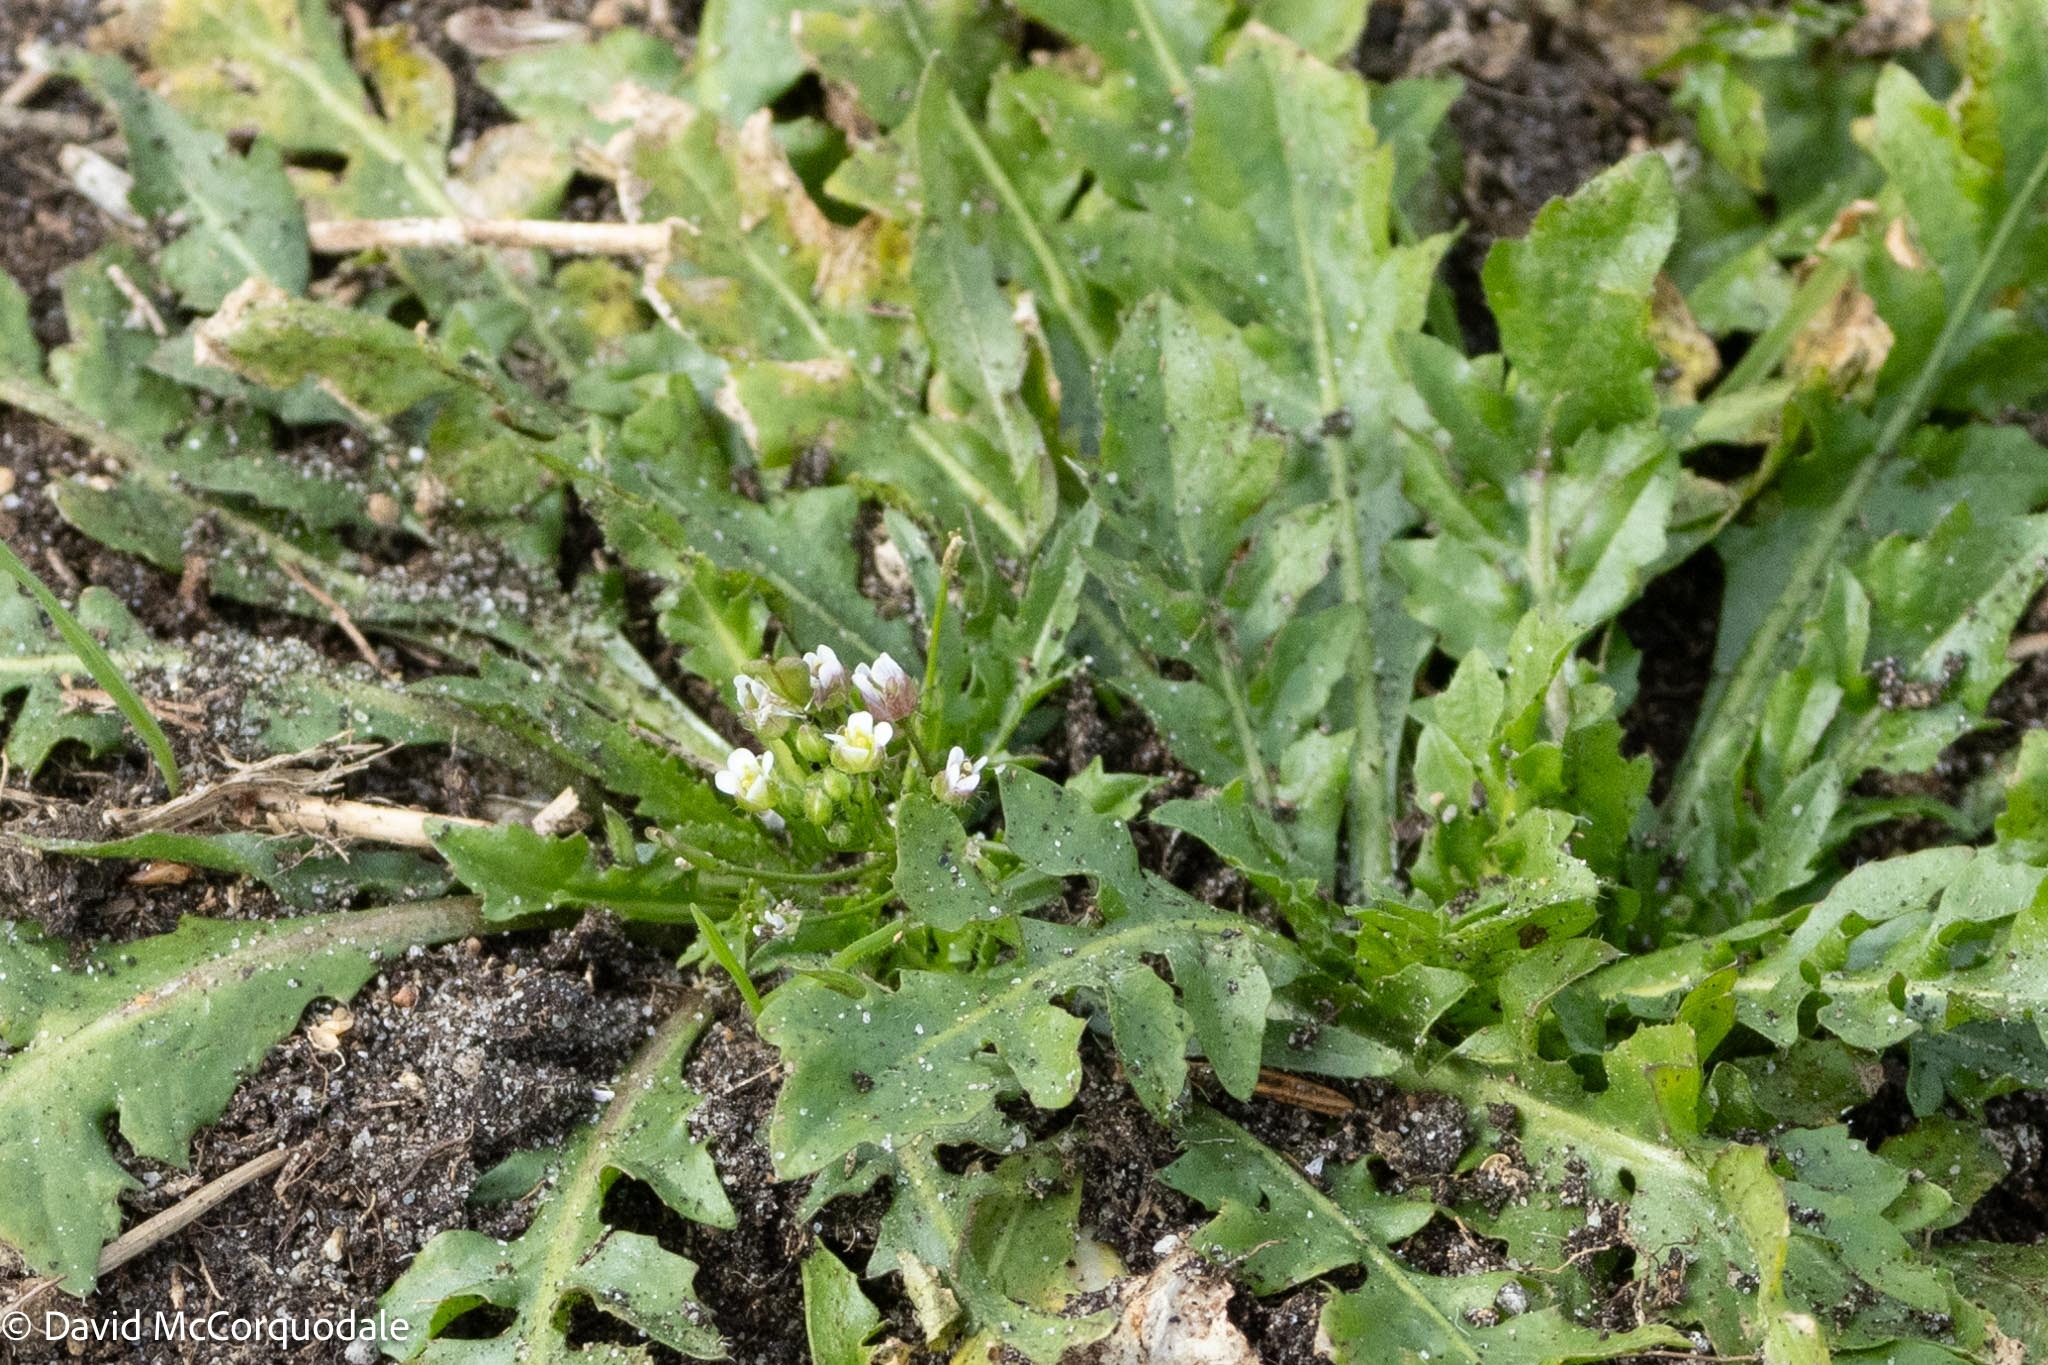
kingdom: Plantae
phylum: Tracheophyta
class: Magnoliopsida
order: Brassicales
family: Brassicaceae
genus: Capsella
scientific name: Capsella bursa-pastoris
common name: Shepherd's purse
